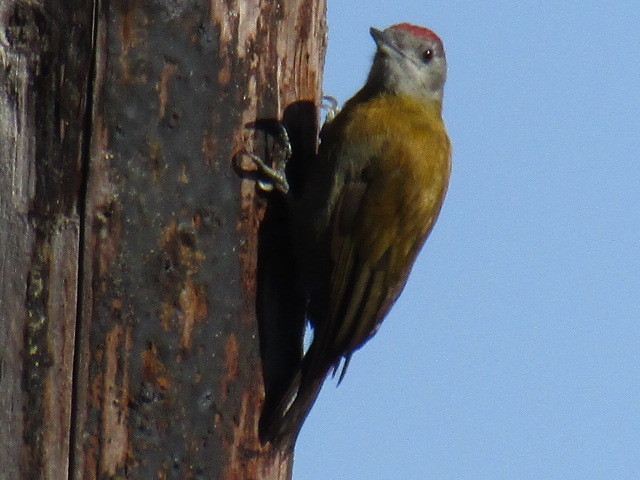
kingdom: Animalia
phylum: Chordata
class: Aves
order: Piciformes
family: Picidae
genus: Dendropicos
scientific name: Dendropicos griseocephalus
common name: Olive woodpecker
